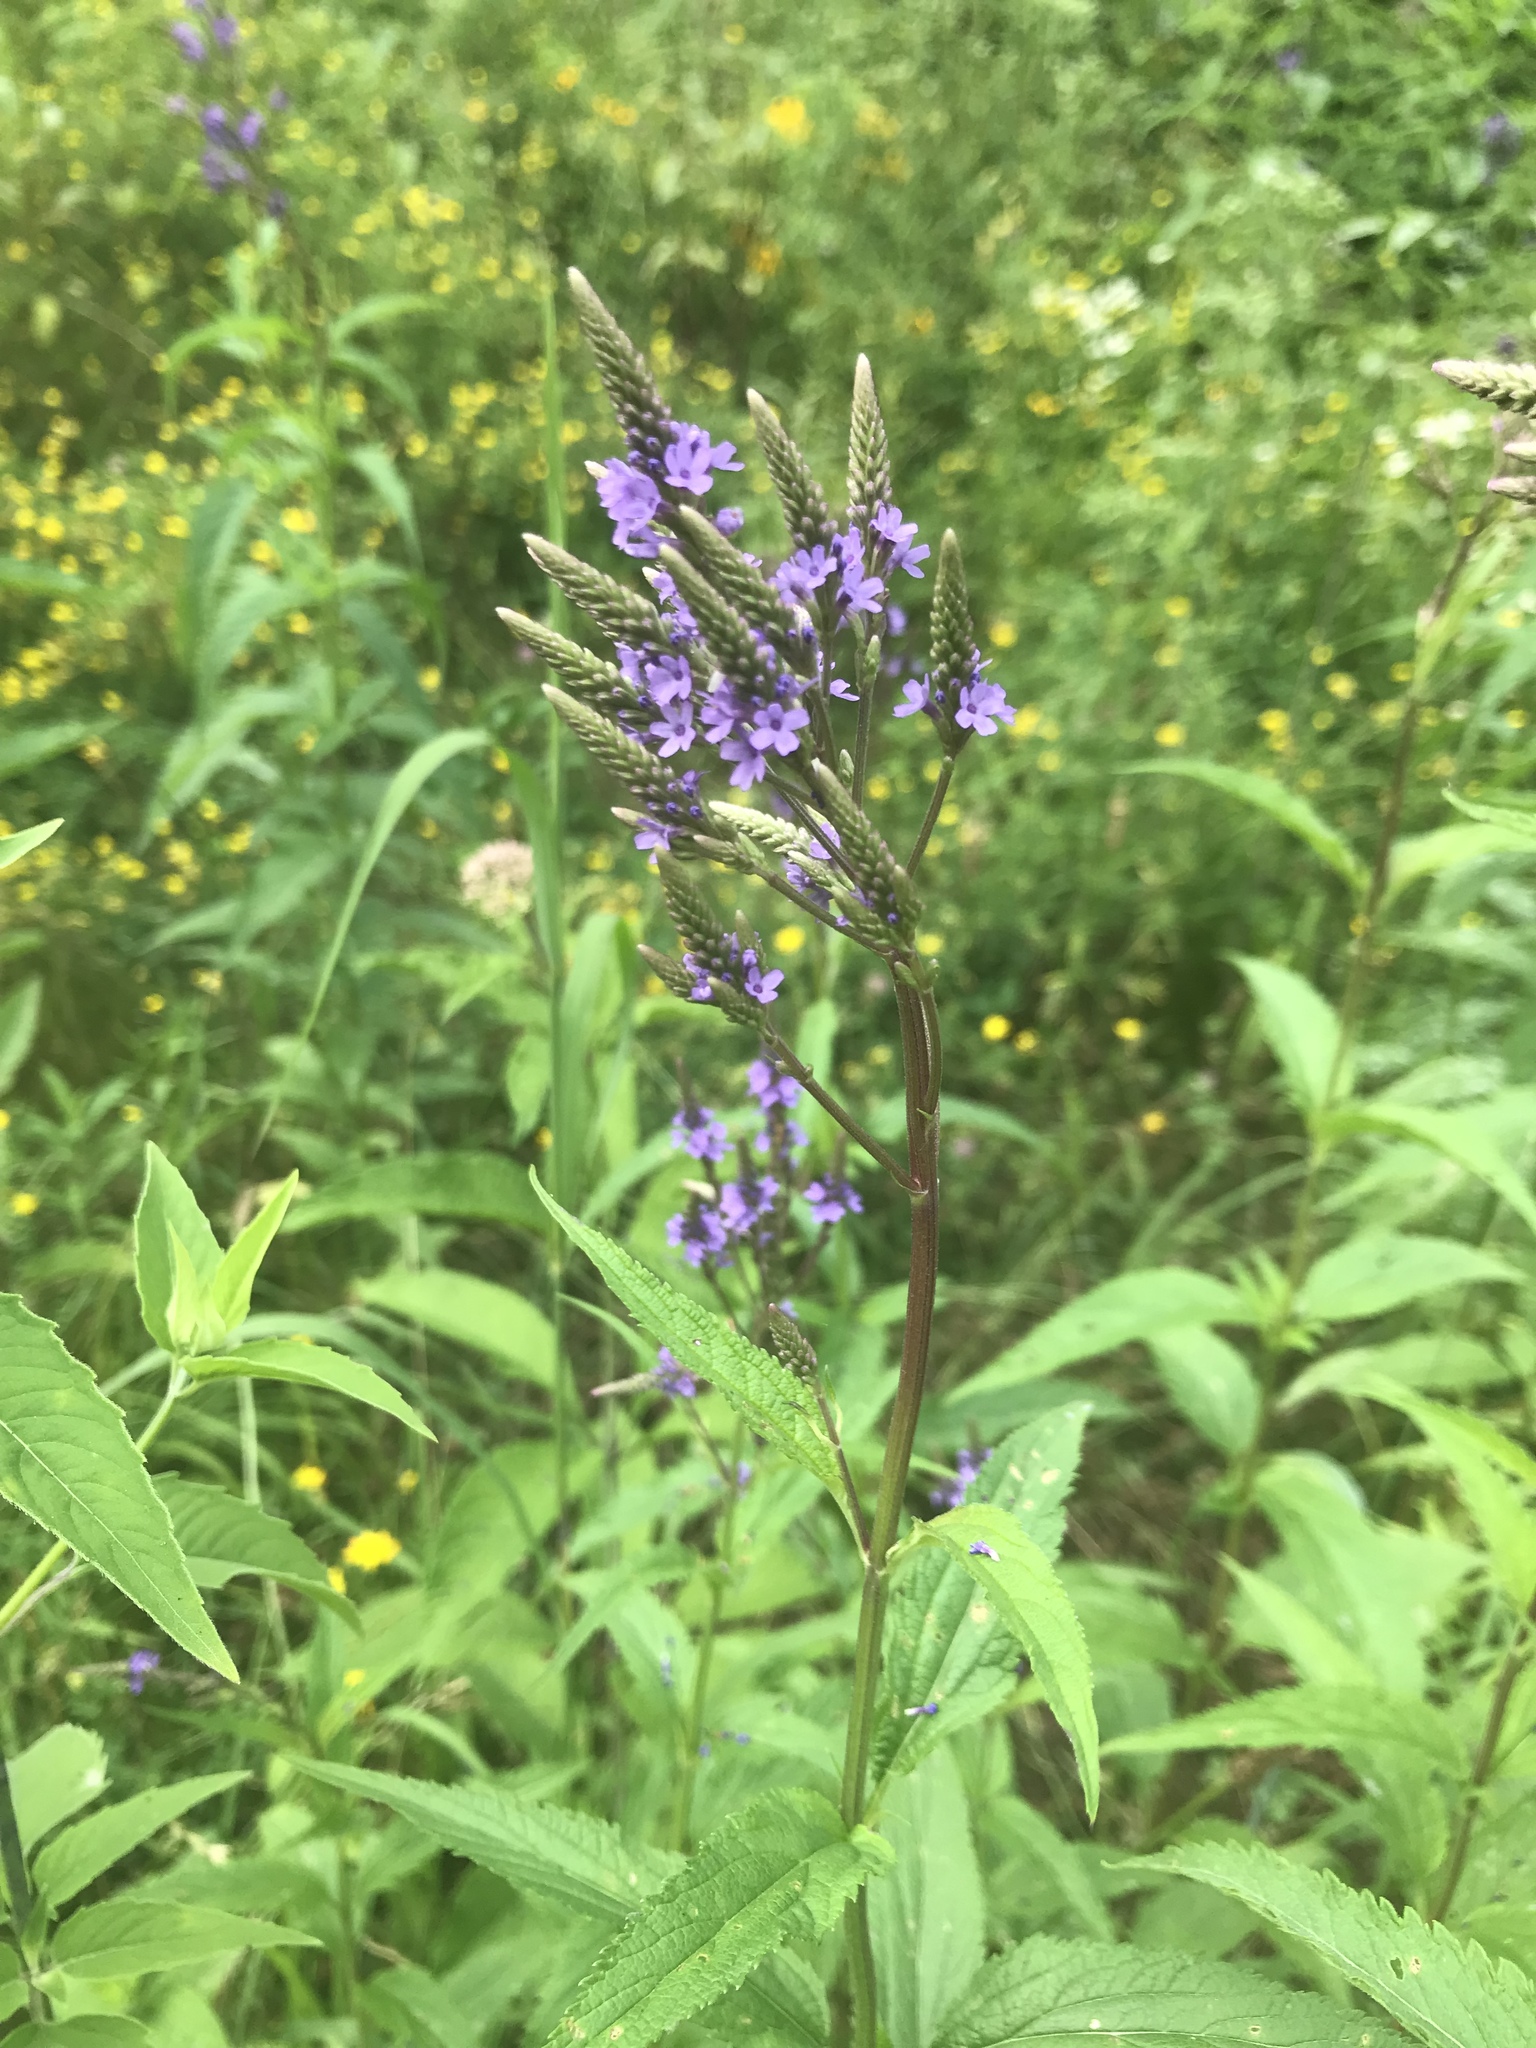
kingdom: Plantae
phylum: Tracheophyta
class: Magnoliopsida
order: Lamiales
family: Verbenaceae
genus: Verbena
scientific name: Verbena hastata
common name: American blue vervain
